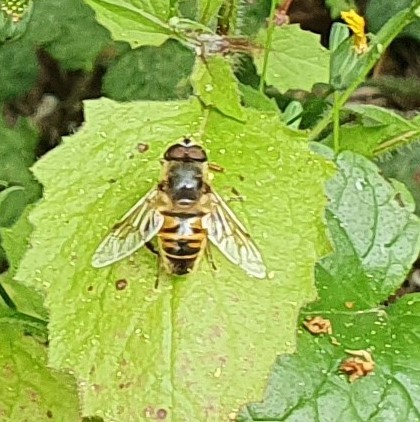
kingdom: Animalia
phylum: Arthropoda
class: Insecta
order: Diptera
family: Syrphidae
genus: Eristalis
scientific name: Eristalis tenax
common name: Drone fly
